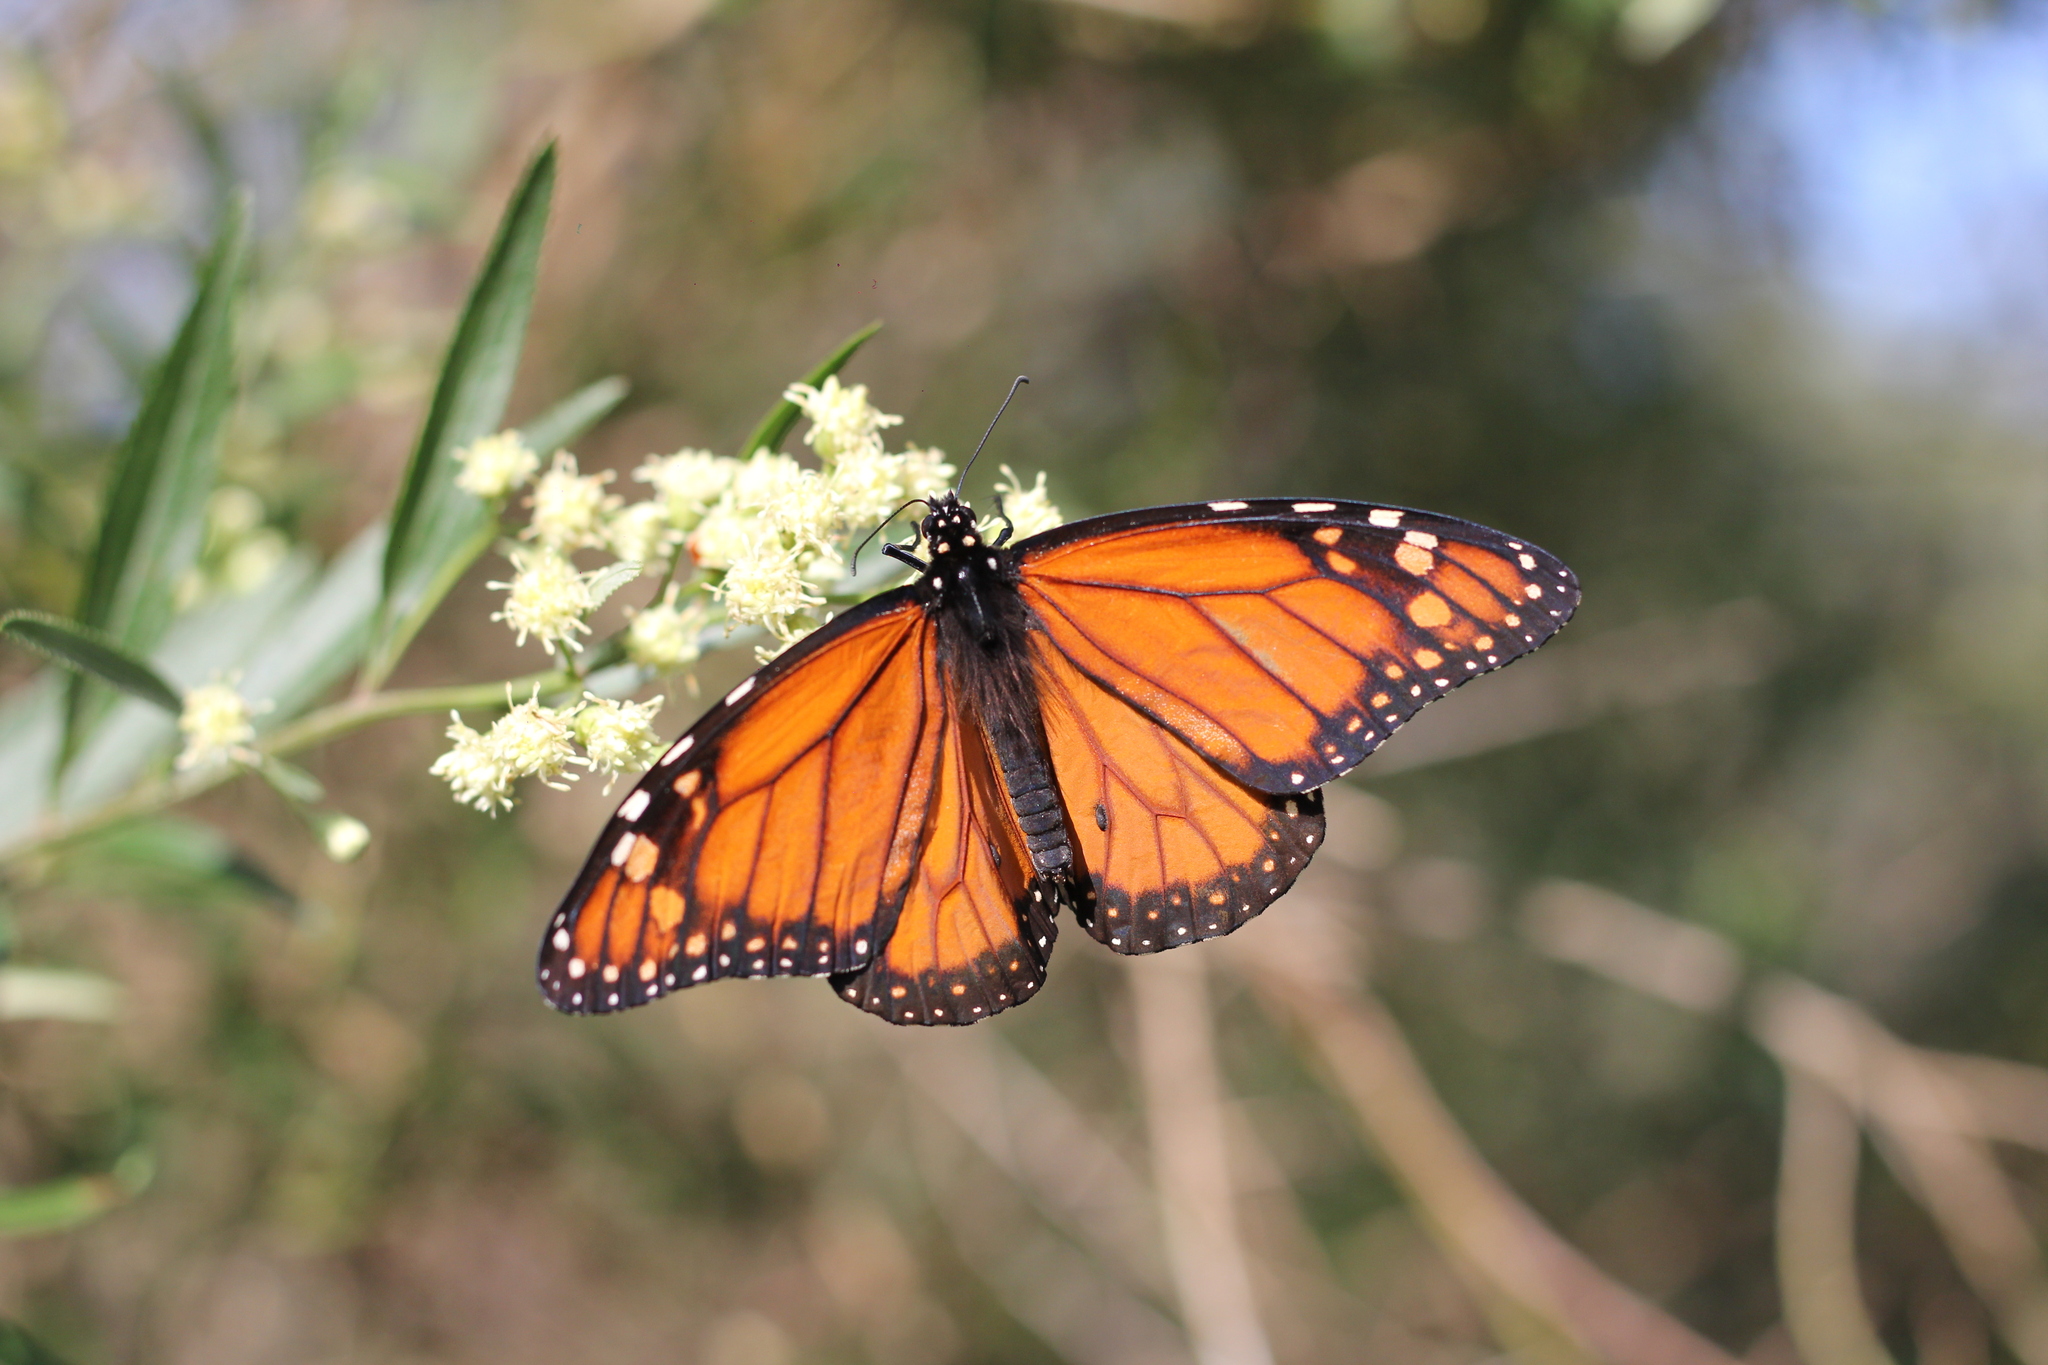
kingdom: Animalia
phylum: Arthropoda
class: Insecta
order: Lepidoptera
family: Nymphalidae
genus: Danaus
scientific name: Danaus erippus
